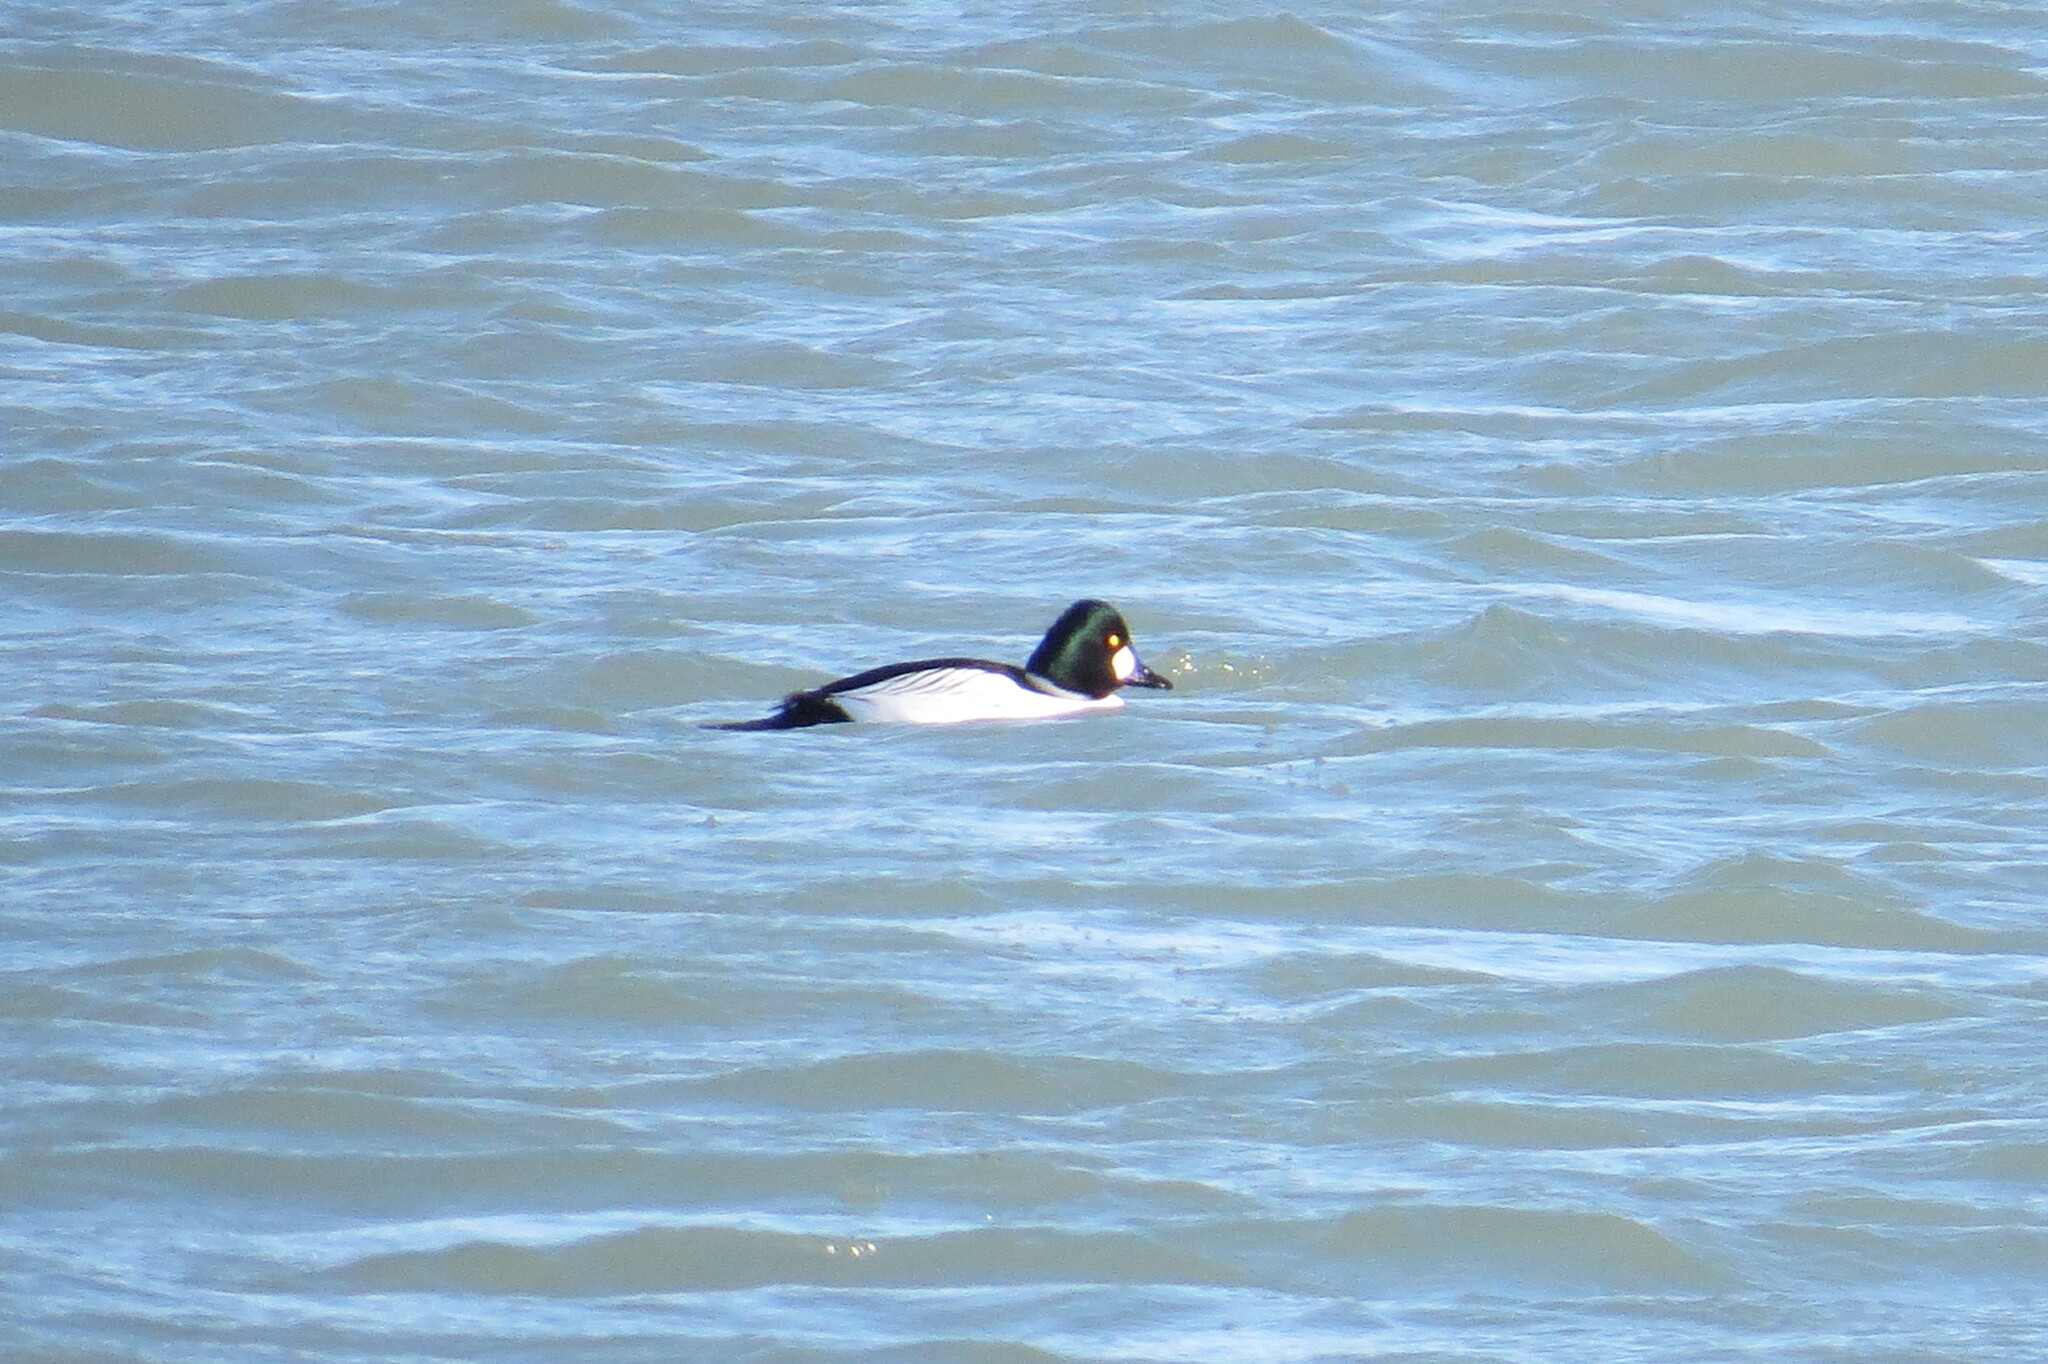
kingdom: Animalia
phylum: Chordata
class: Aves
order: Anseriformes
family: Anatidae
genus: Bucephala
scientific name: Bucephala clangula
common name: Common goldeneye
